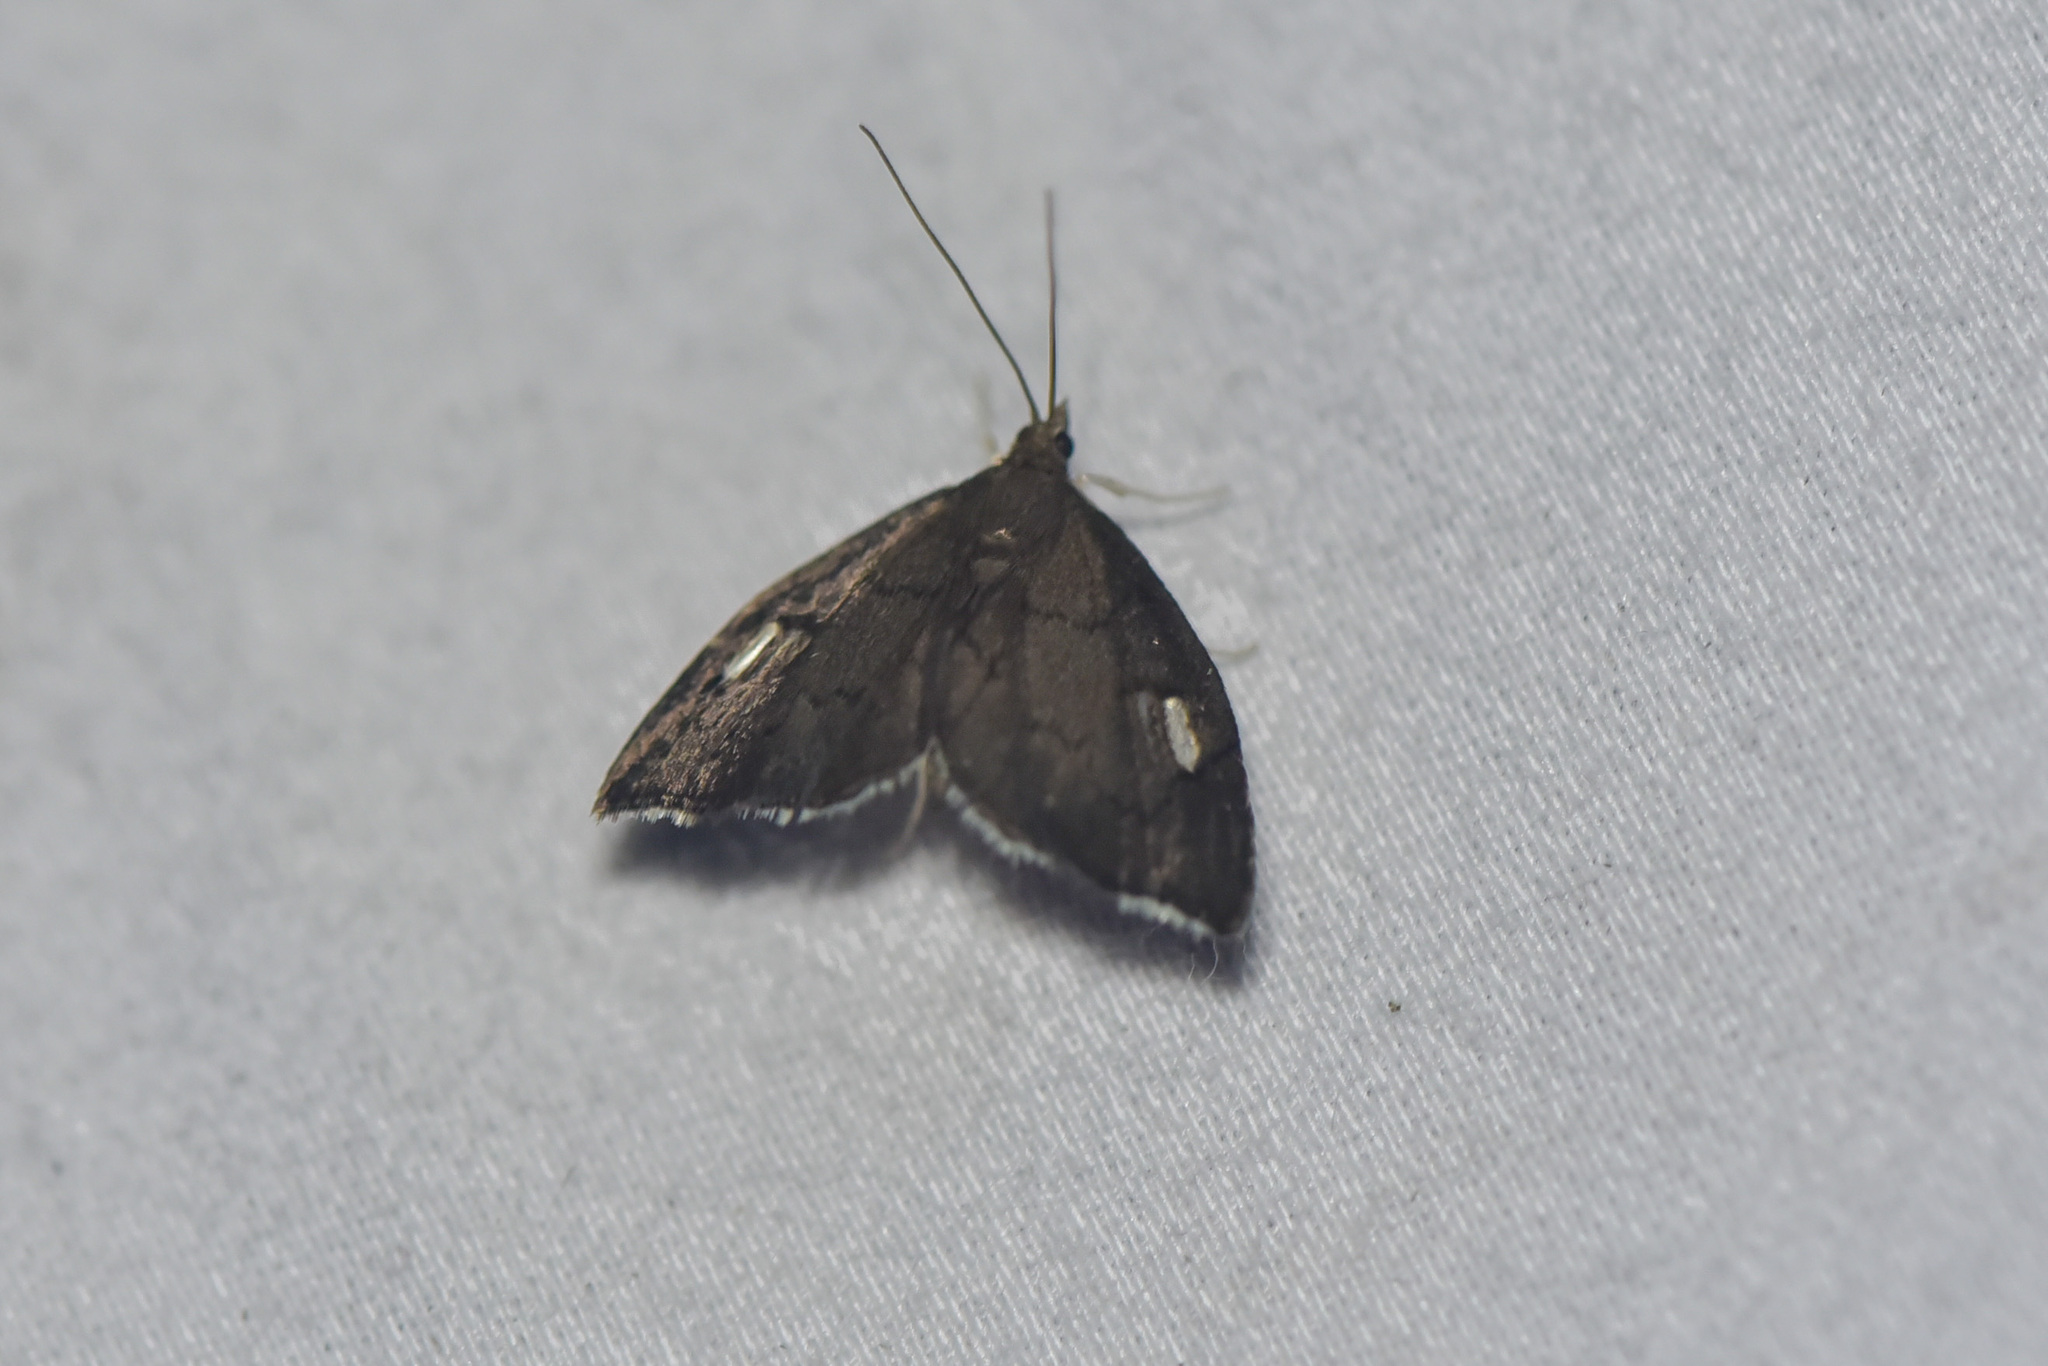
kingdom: Animalia
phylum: Arthropoda
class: Insecta
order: Lepidoptera
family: Crambidae
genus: Perispasta
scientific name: Perispasta caeculalis
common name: Titian peale's moth
